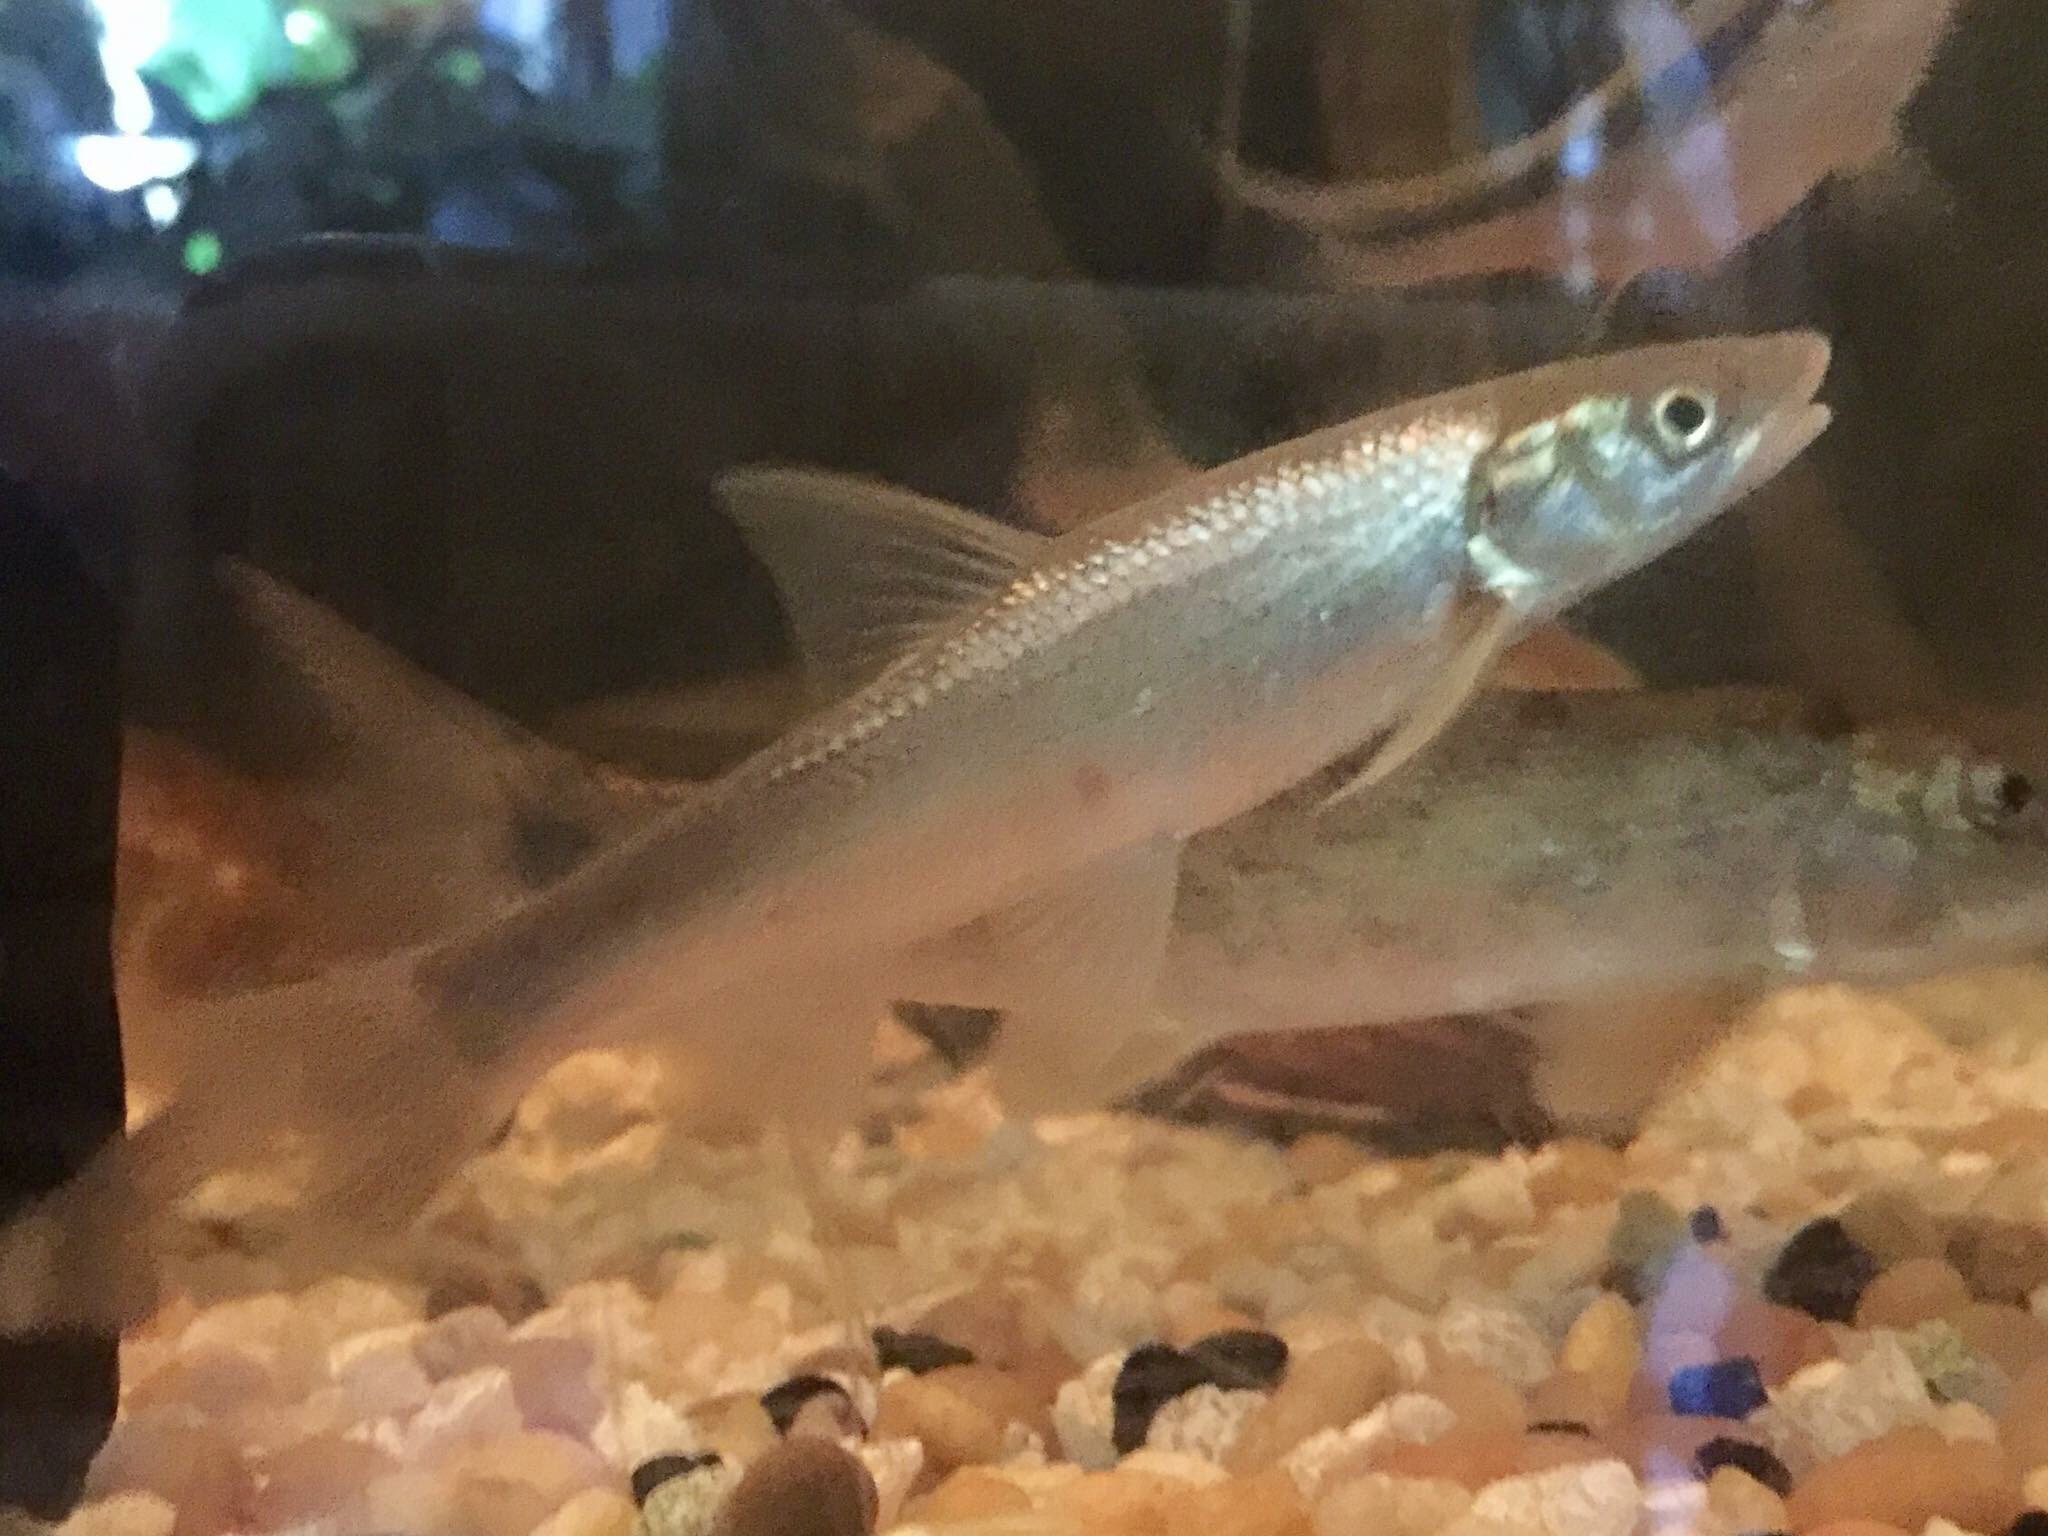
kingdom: Animalia
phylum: Chordata
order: Cypriniformes
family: Cyprinidae
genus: Platygobio
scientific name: Platygobio gracilis
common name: Flathead chub
